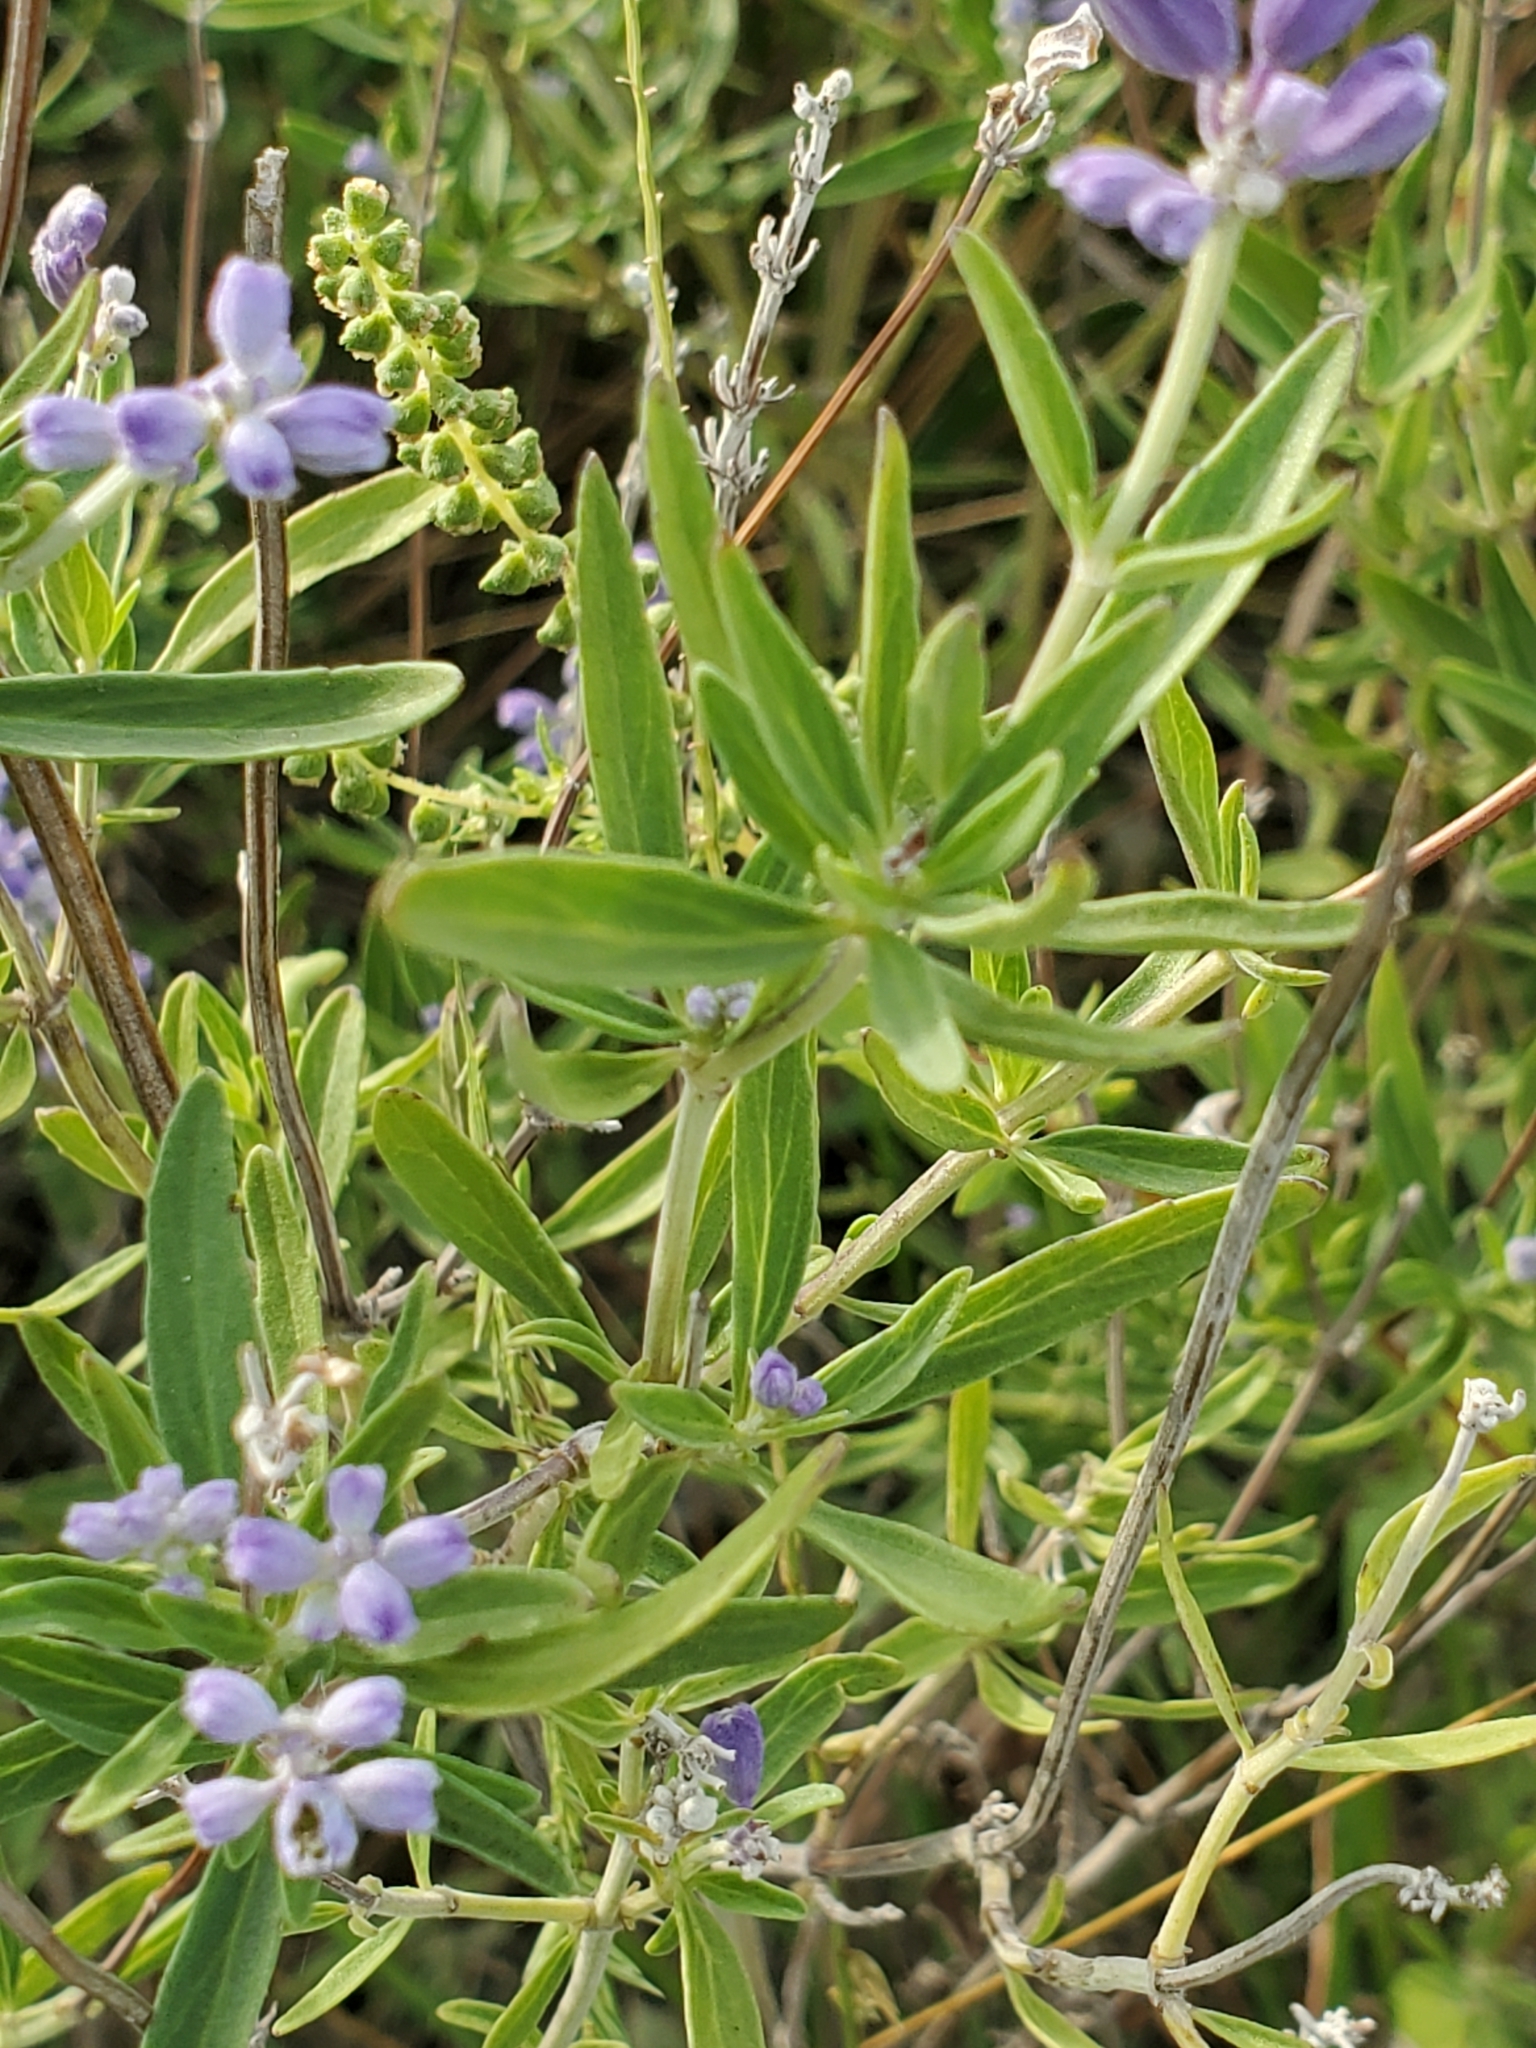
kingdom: Plantae
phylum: Tracheophyta
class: Magnoliopsida
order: Lamiales
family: Lamiaceae
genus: Salvia
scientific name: Salvia farinacea
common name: Mealy sage
